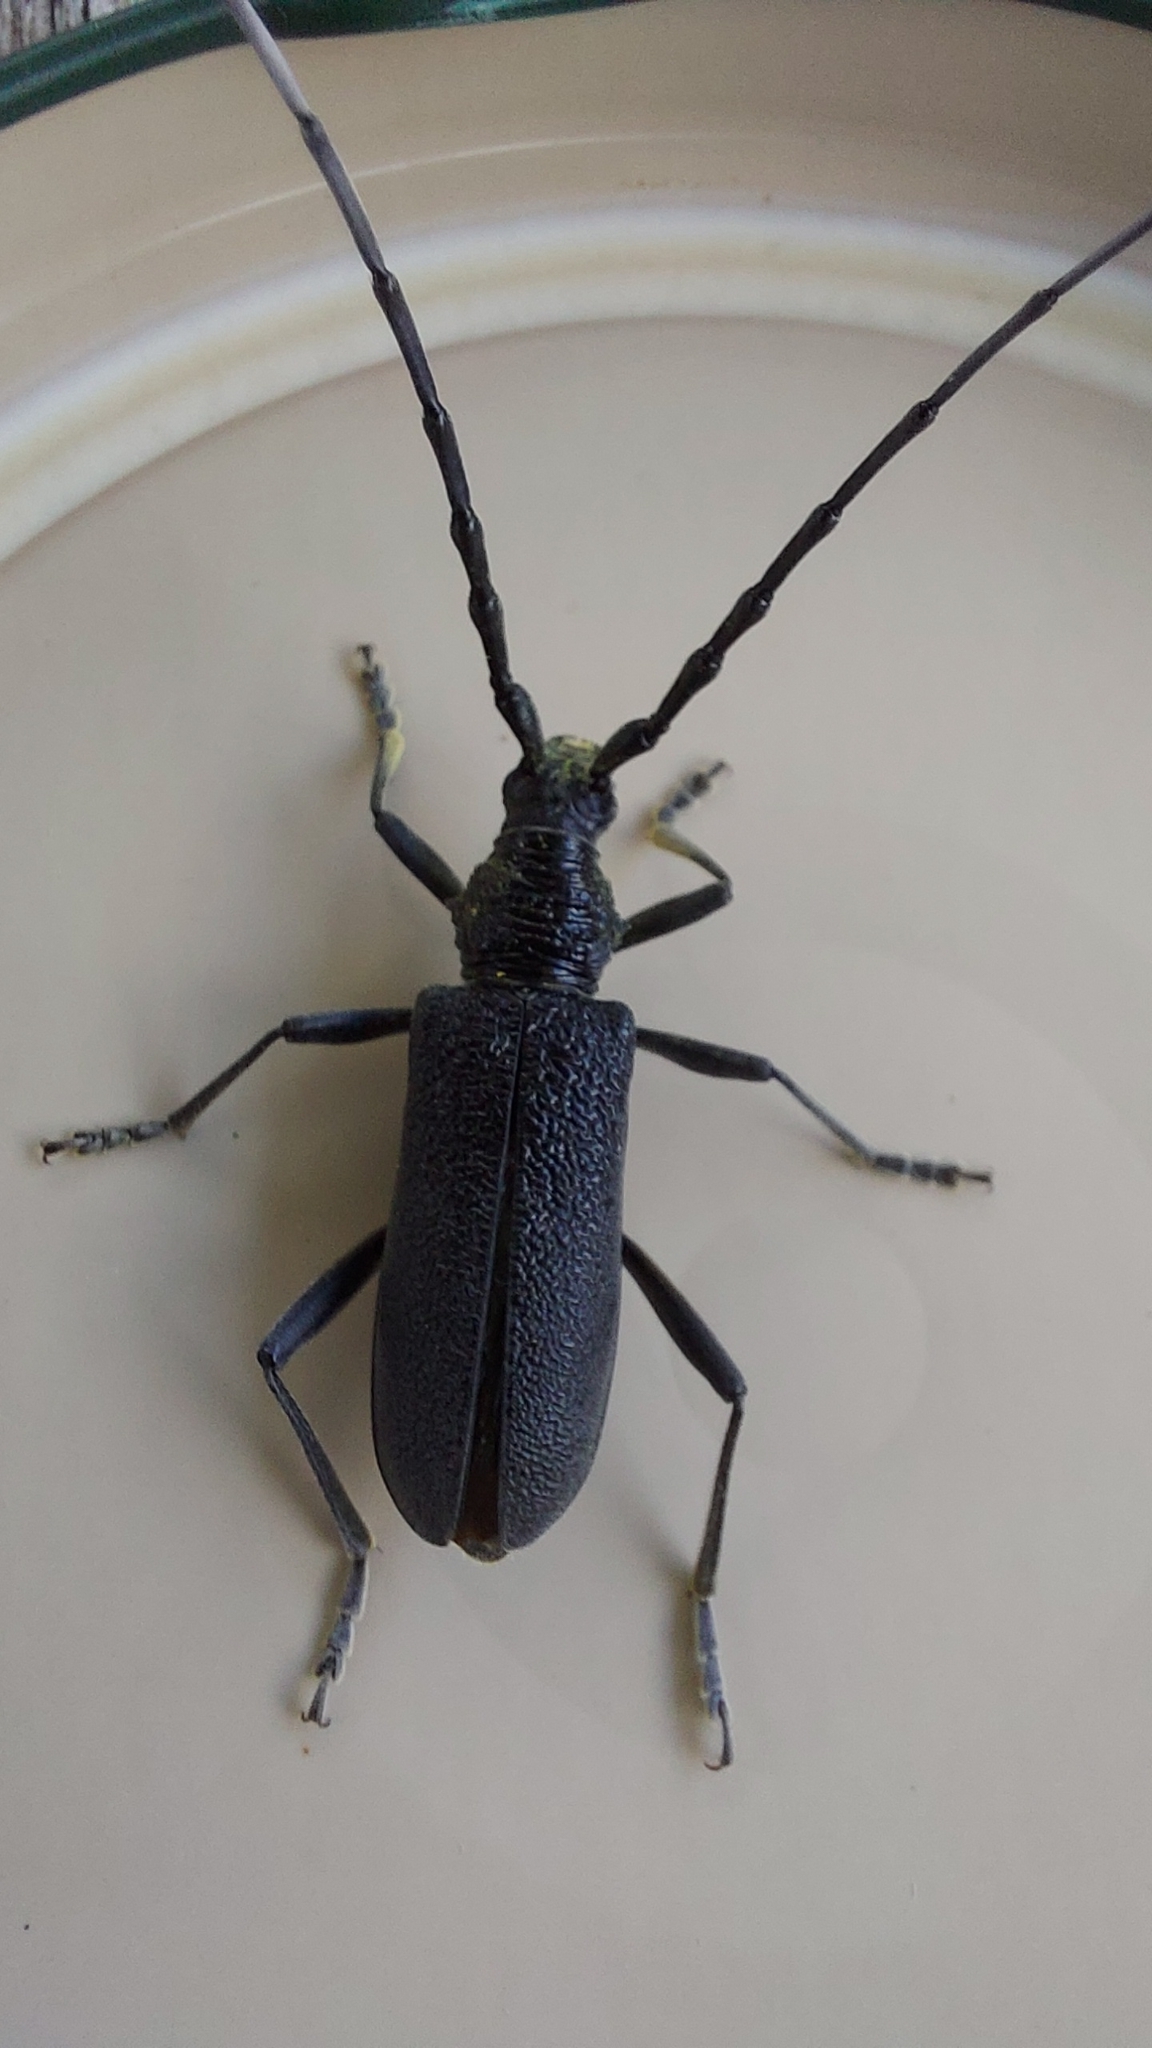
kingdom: Animalia
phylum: Arthropoda
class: Insecta
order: Coleoptera
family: Cerambycidae
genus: Cerambyx
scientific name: Cerambyx scopolii
